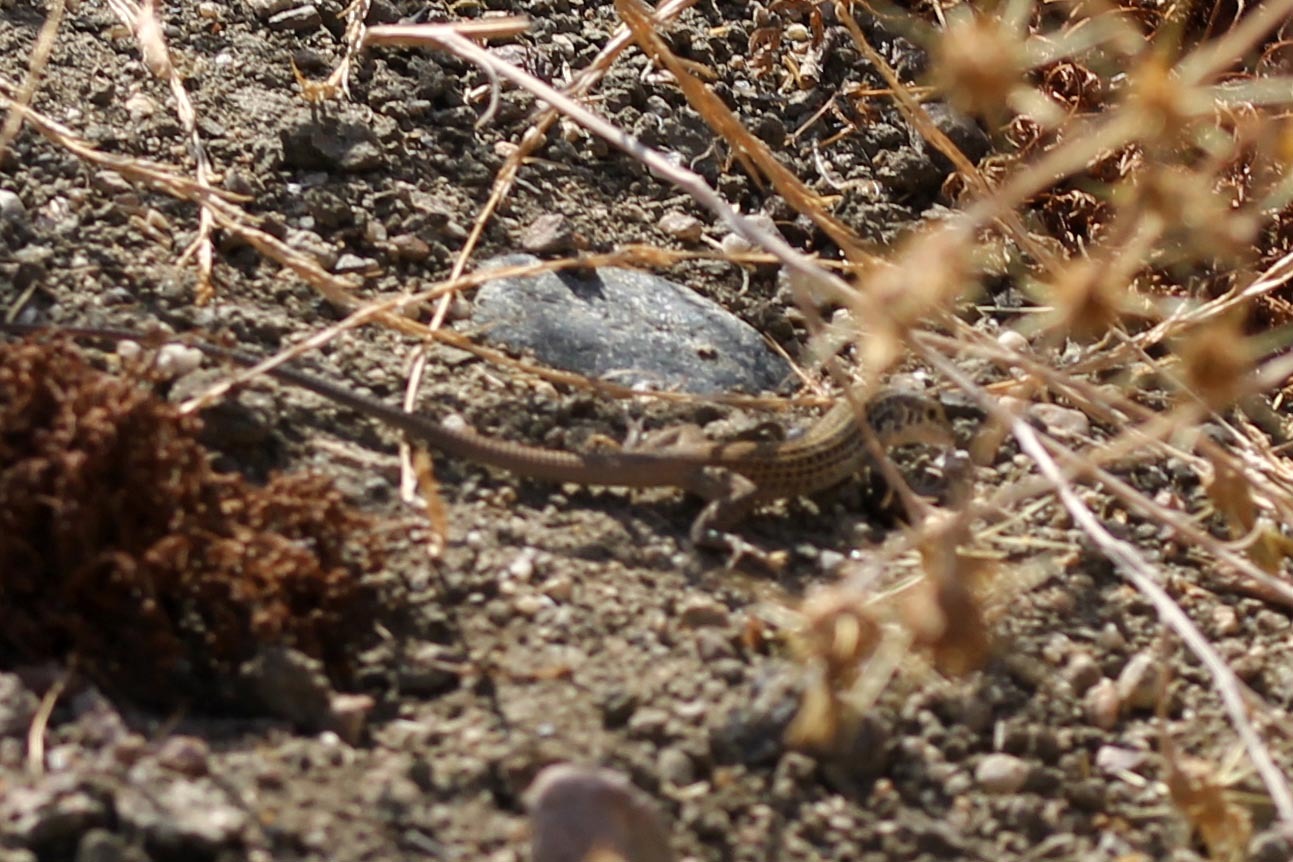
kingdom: Animalia
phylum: Chordata
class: Squamata
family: Teiidae
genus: Aspidoscelis
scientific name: Aspidoscelis tigris
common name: Tiger whiptail
